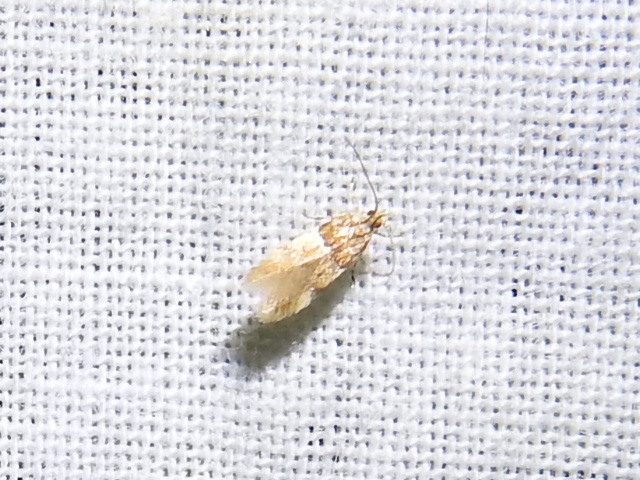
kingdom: Animalia
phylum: Arthropoda
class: Insecta
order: Lepidoptera
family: Gelechiidae
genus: Theisoa
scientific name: Theisoa constrictella
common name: Constricted twirler
